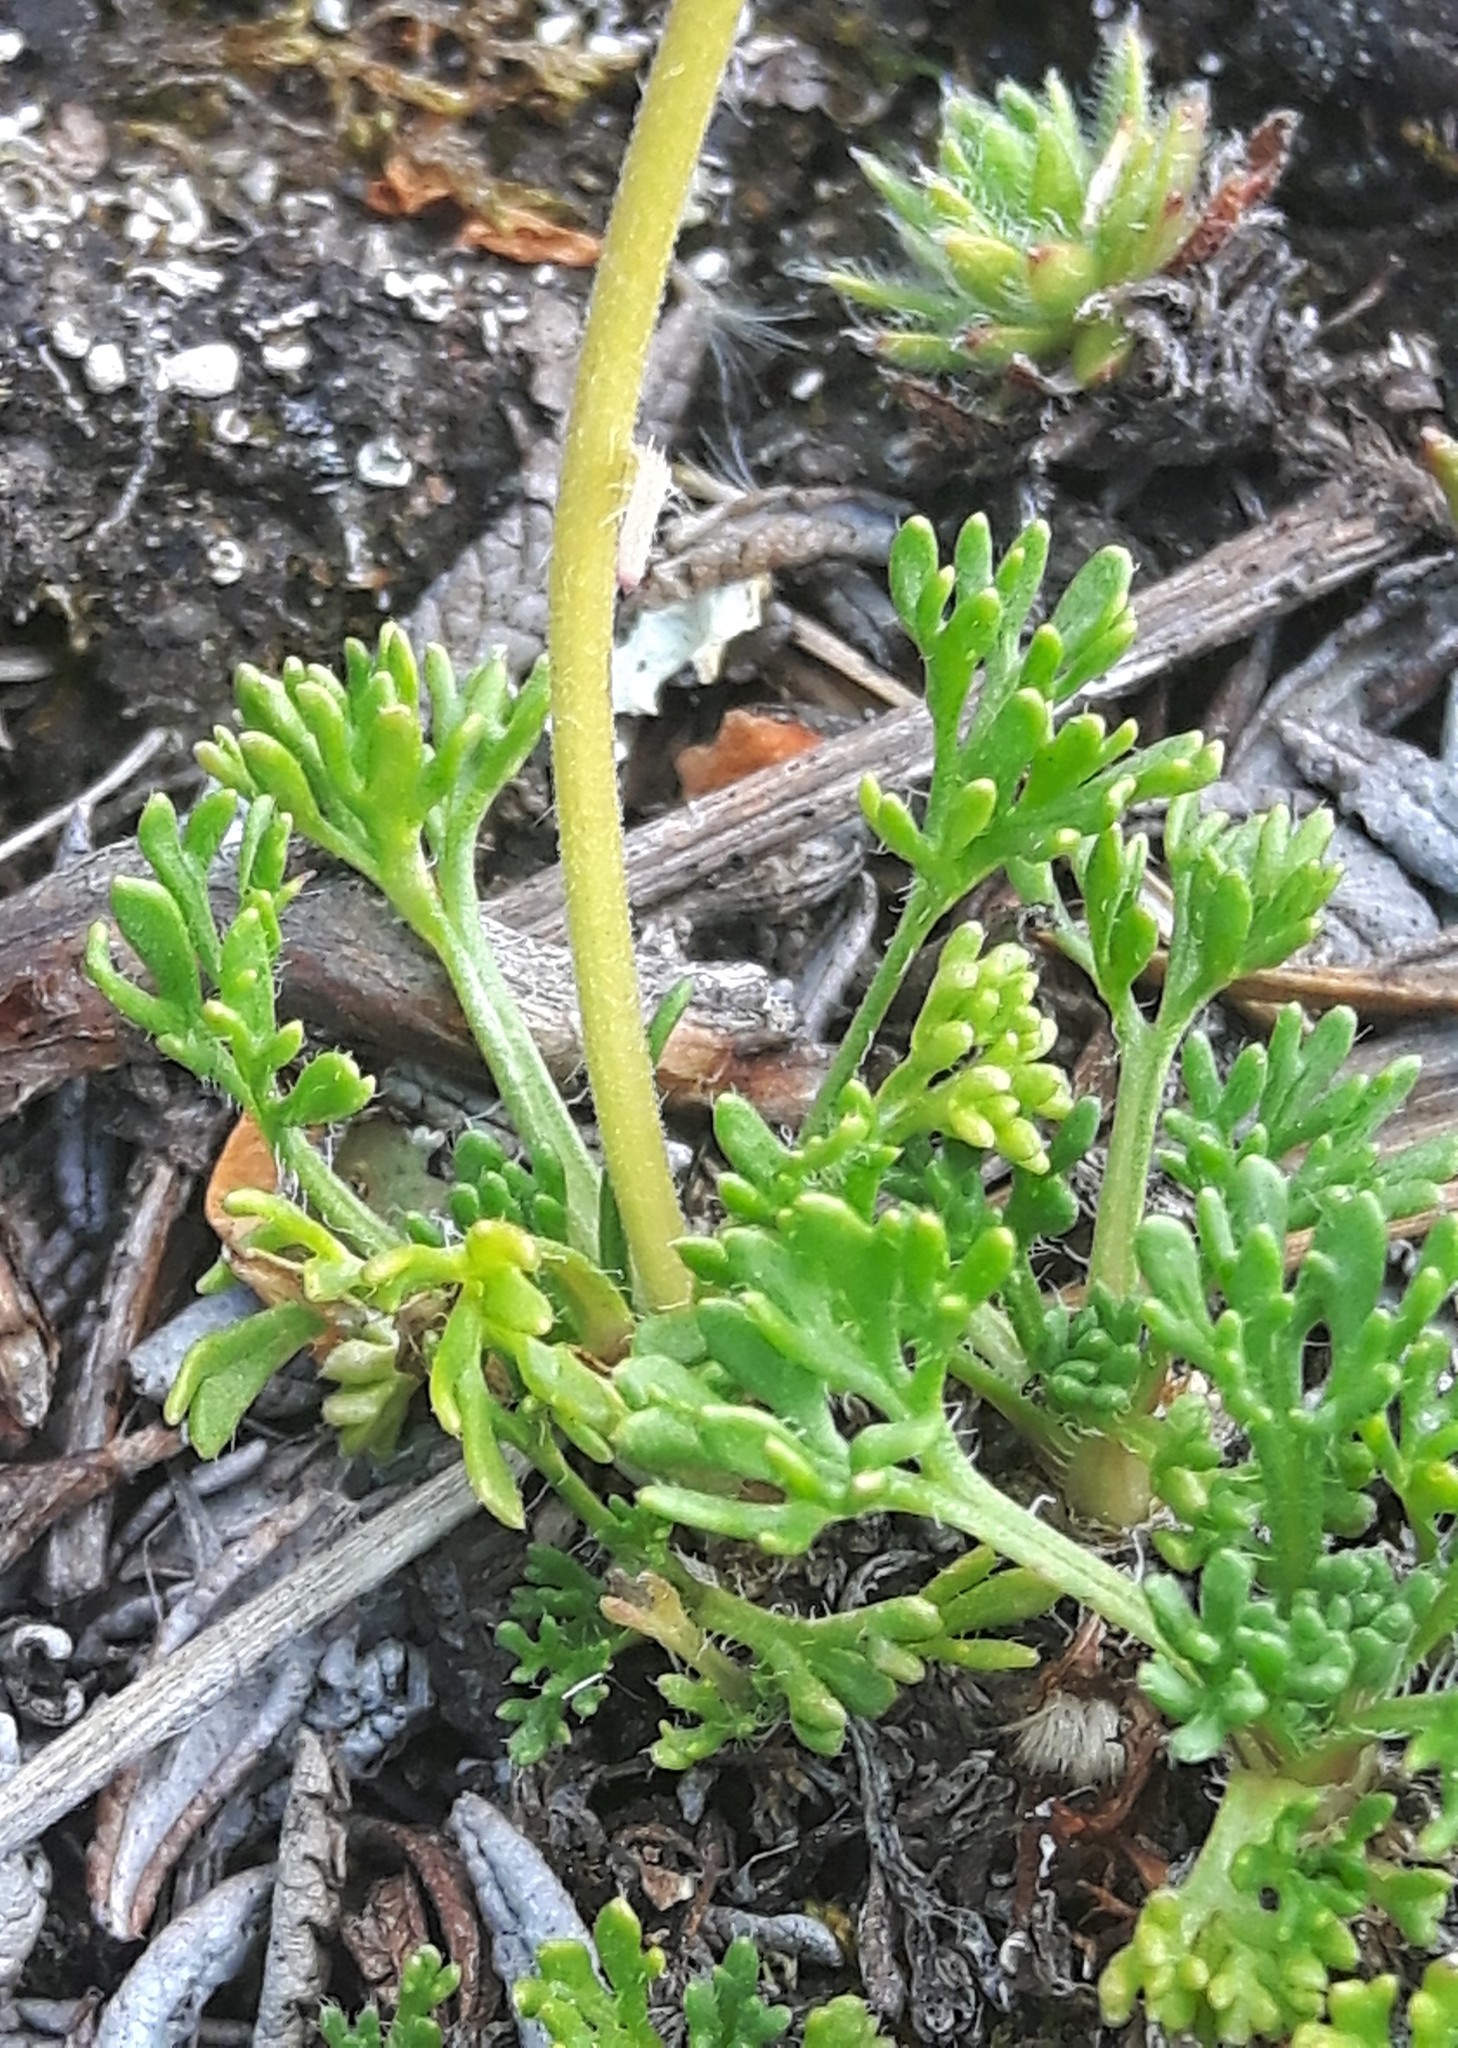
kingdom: Plantae
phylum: Tracheophyta
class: Magnoliopsida
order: Asterales
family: Asteraceae
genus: Erigeron
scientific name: Erigeron compositus
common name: Dwarf mountain fleabane
